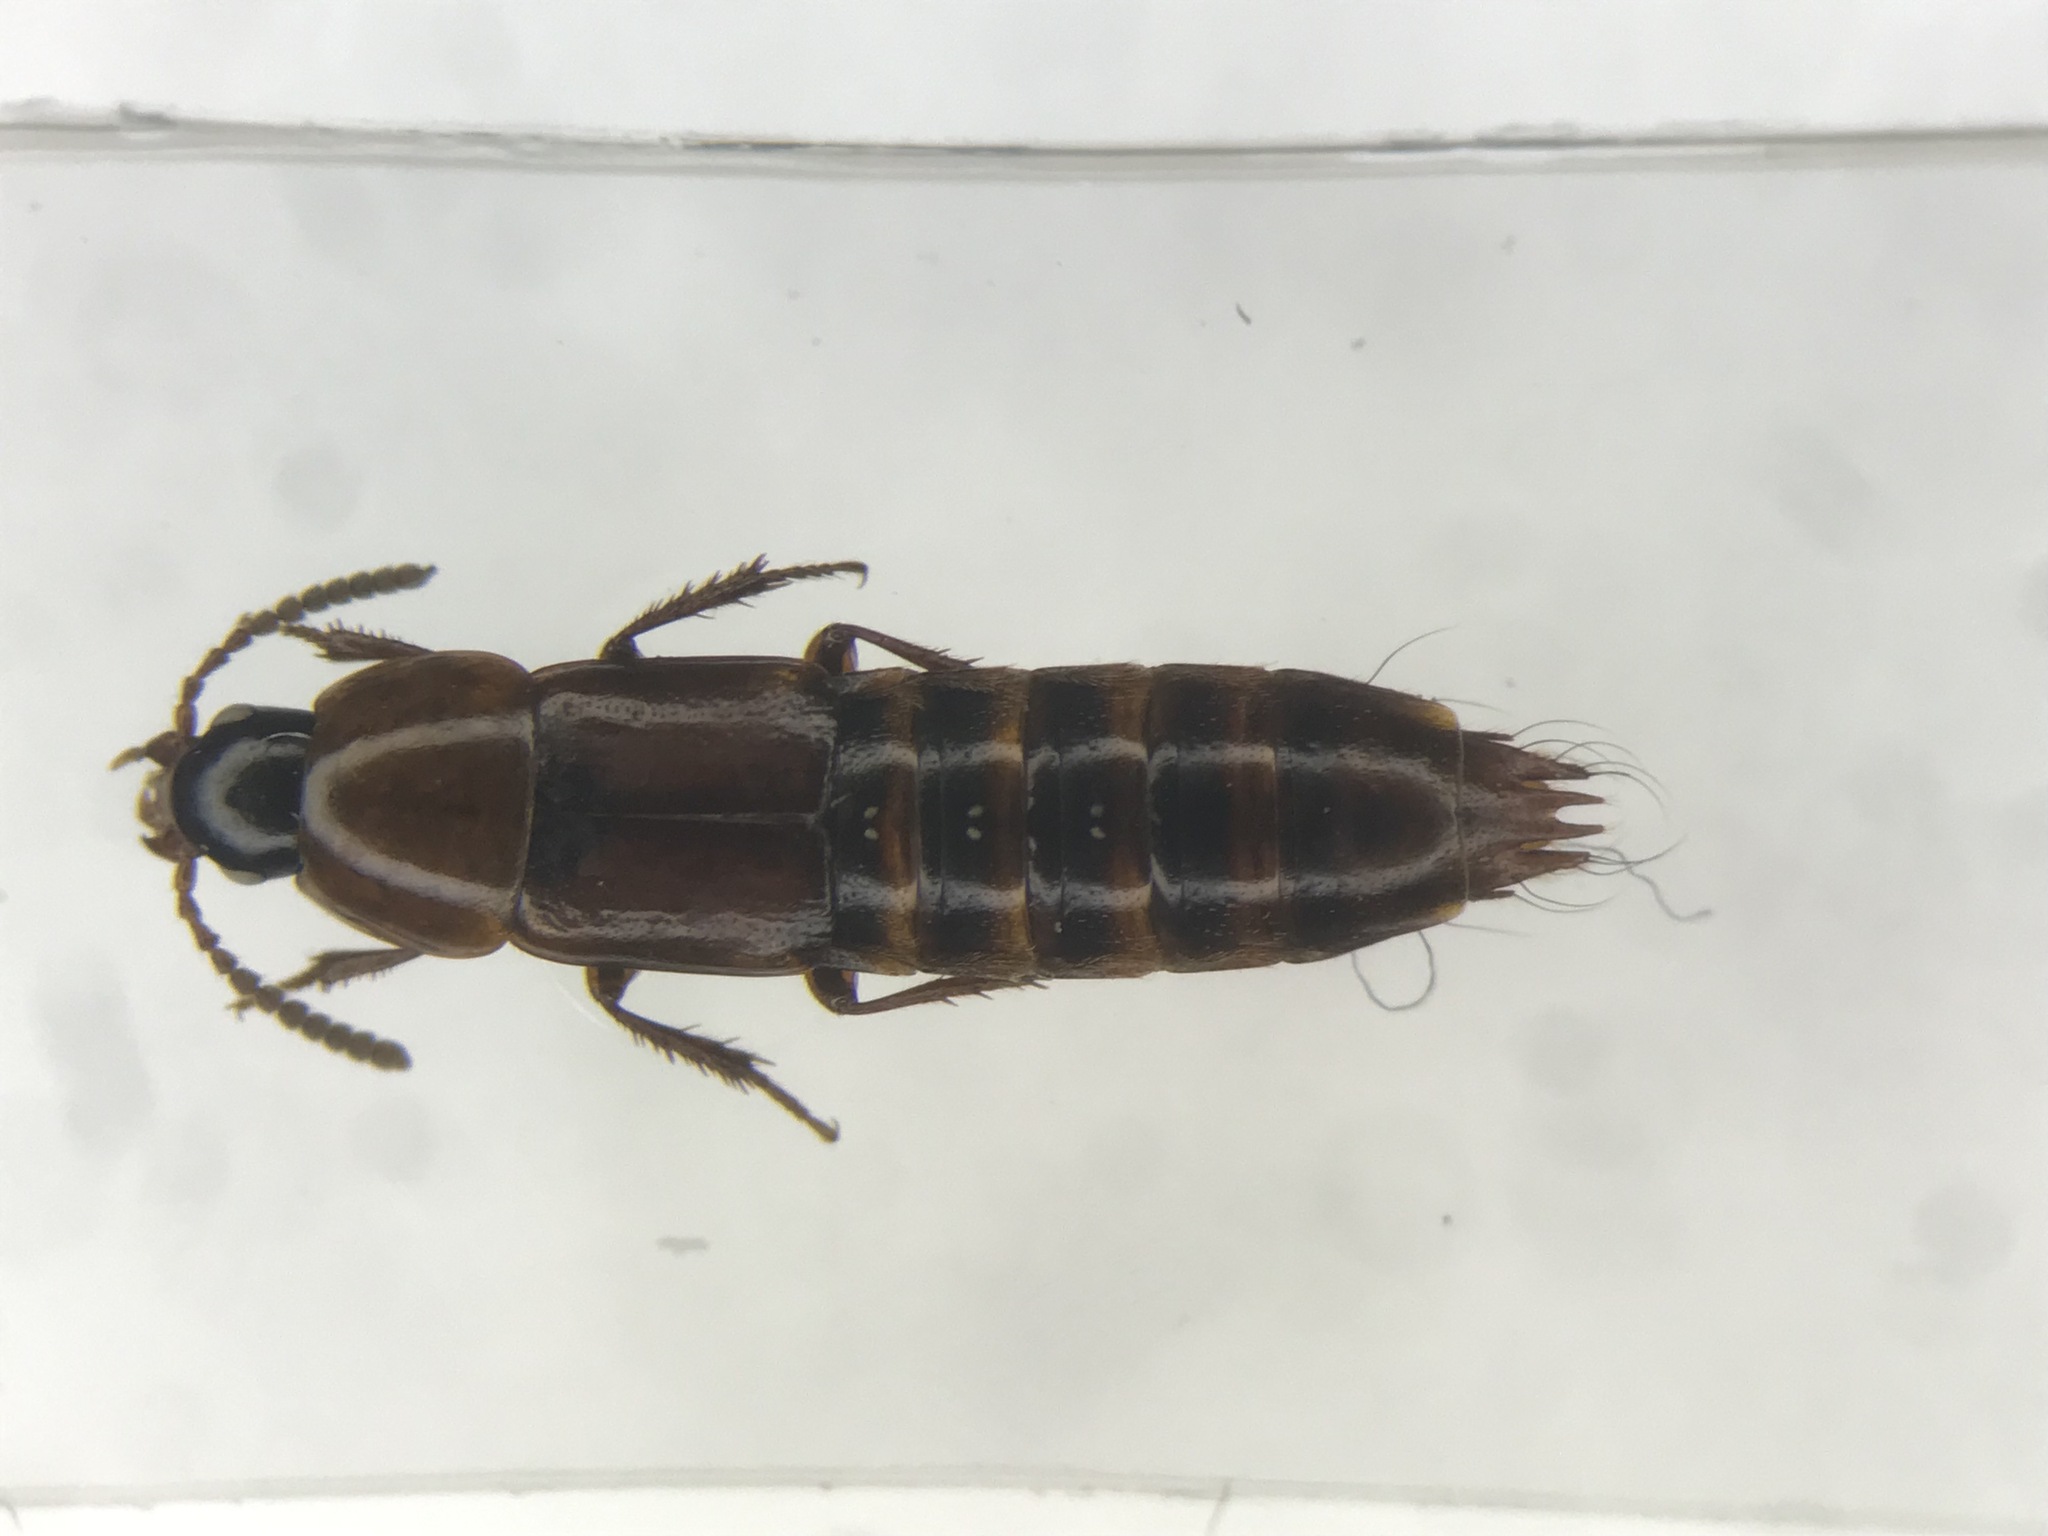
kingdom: Animalia
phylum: Arthropoda
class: Insecta
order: Coleoptera
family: Staphylinidae
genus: Tachinus
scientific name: Tachinus elongatus
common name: Staph beetle
